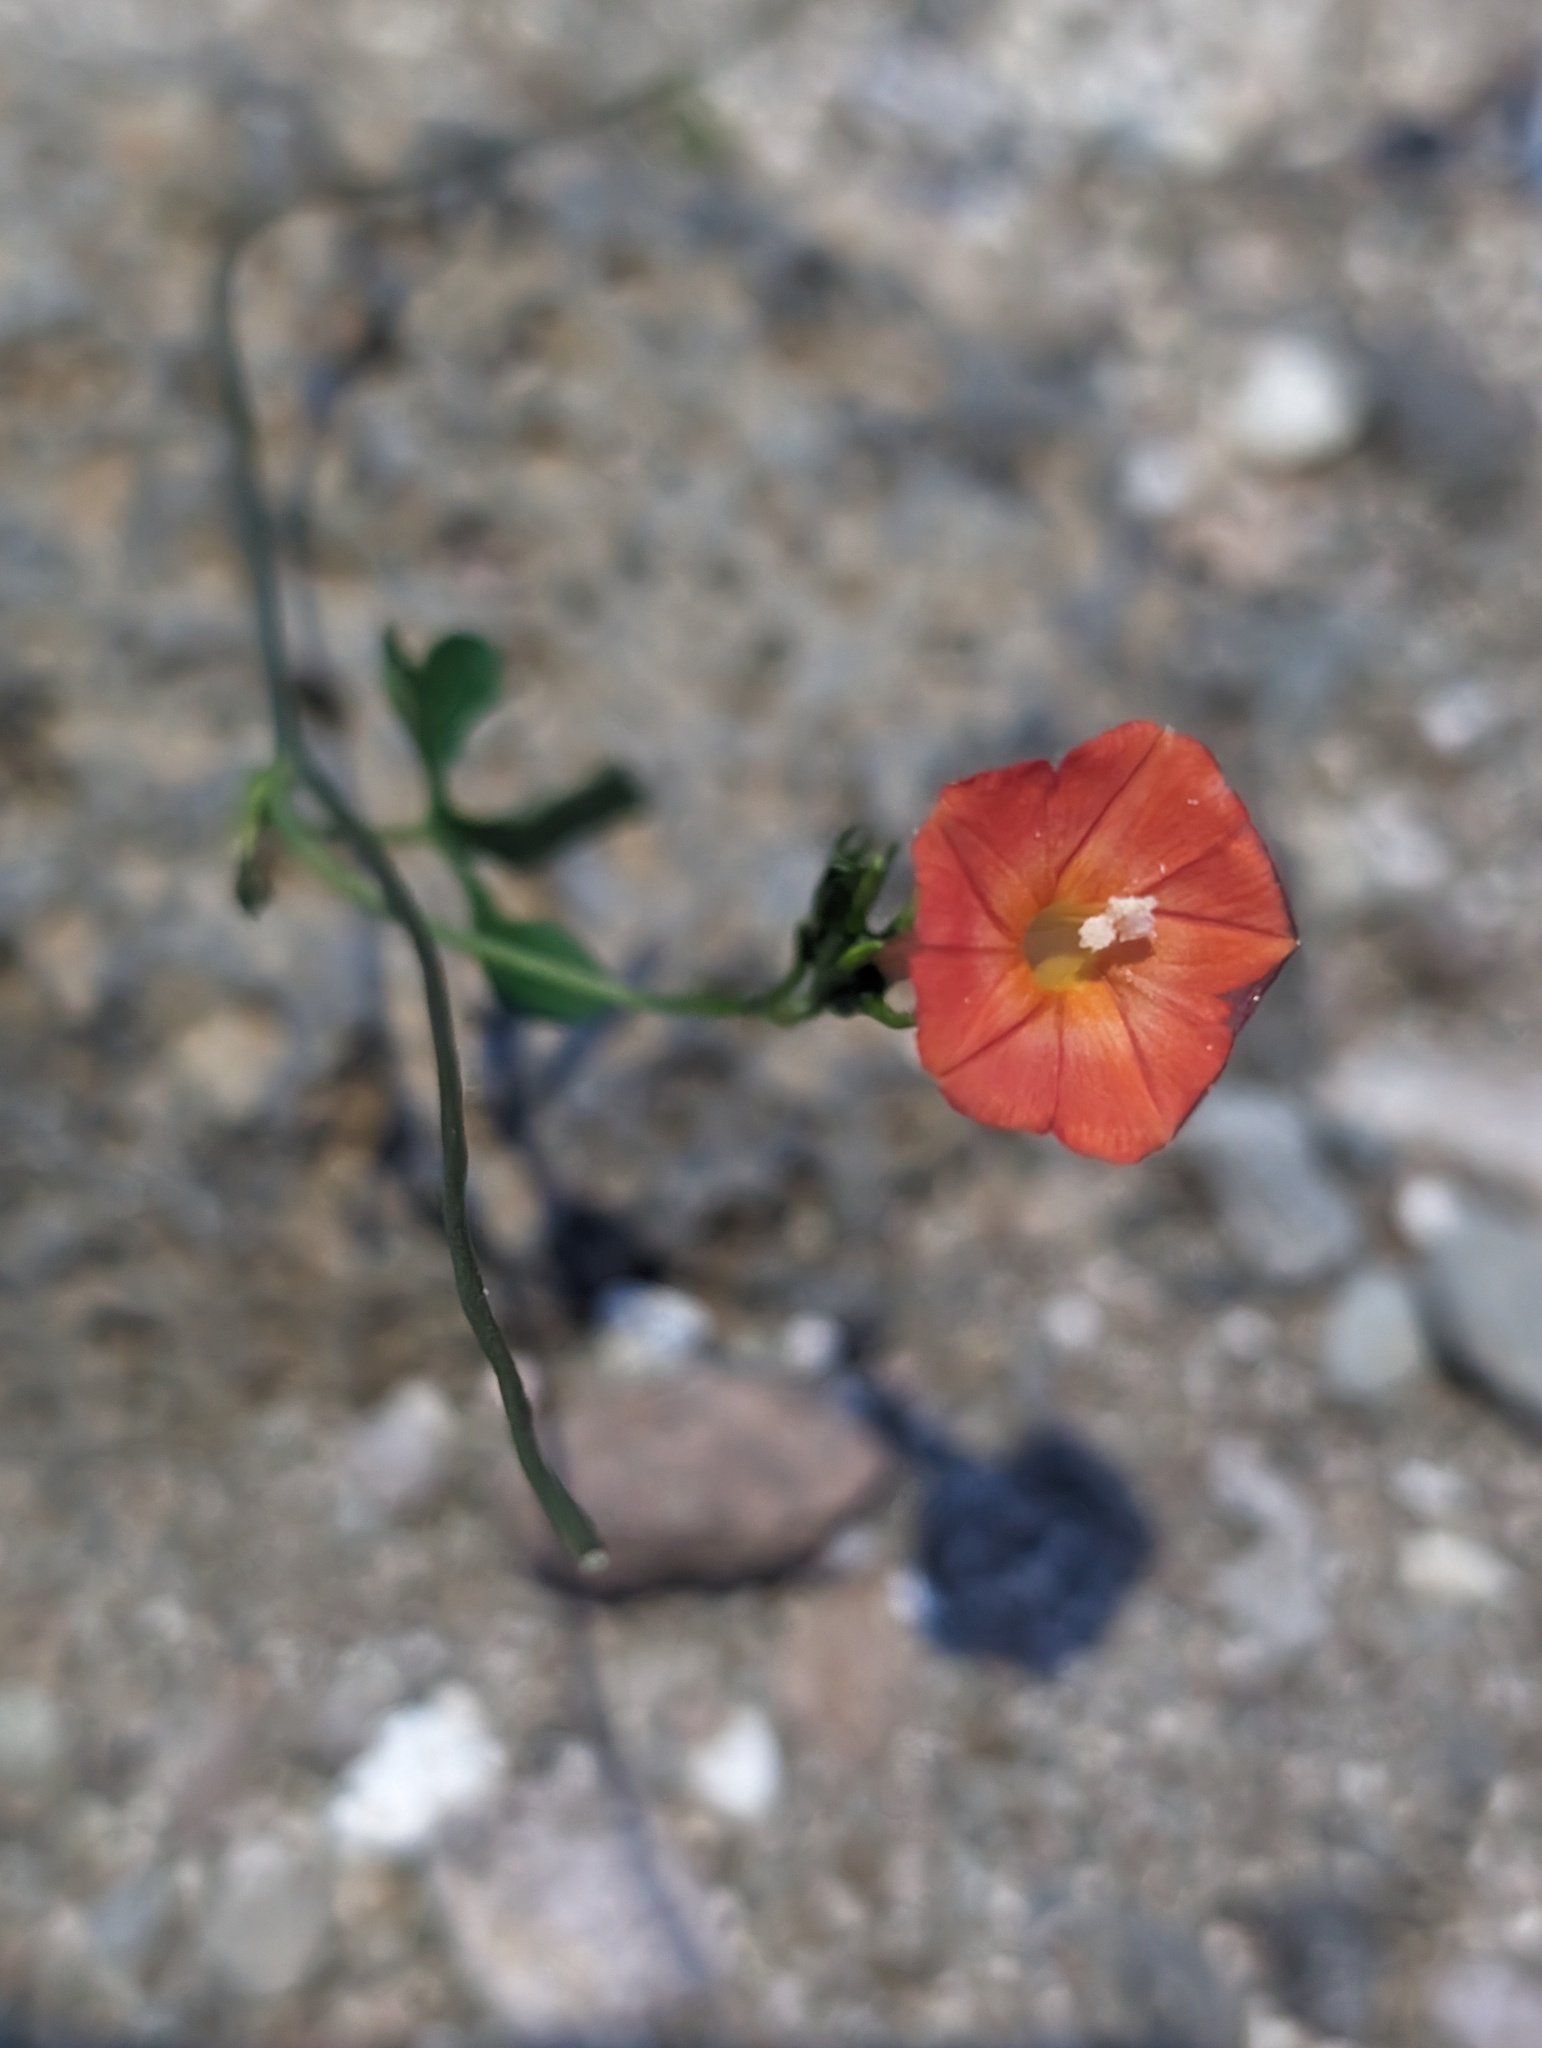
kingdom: Plantae
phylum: Tracheophyta
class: Magnoliopsida
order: Solanales
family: Convolvulaceae
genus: Ipomoea
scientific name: Ipomoea cristulata
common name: Trans-pecos morning-glory
